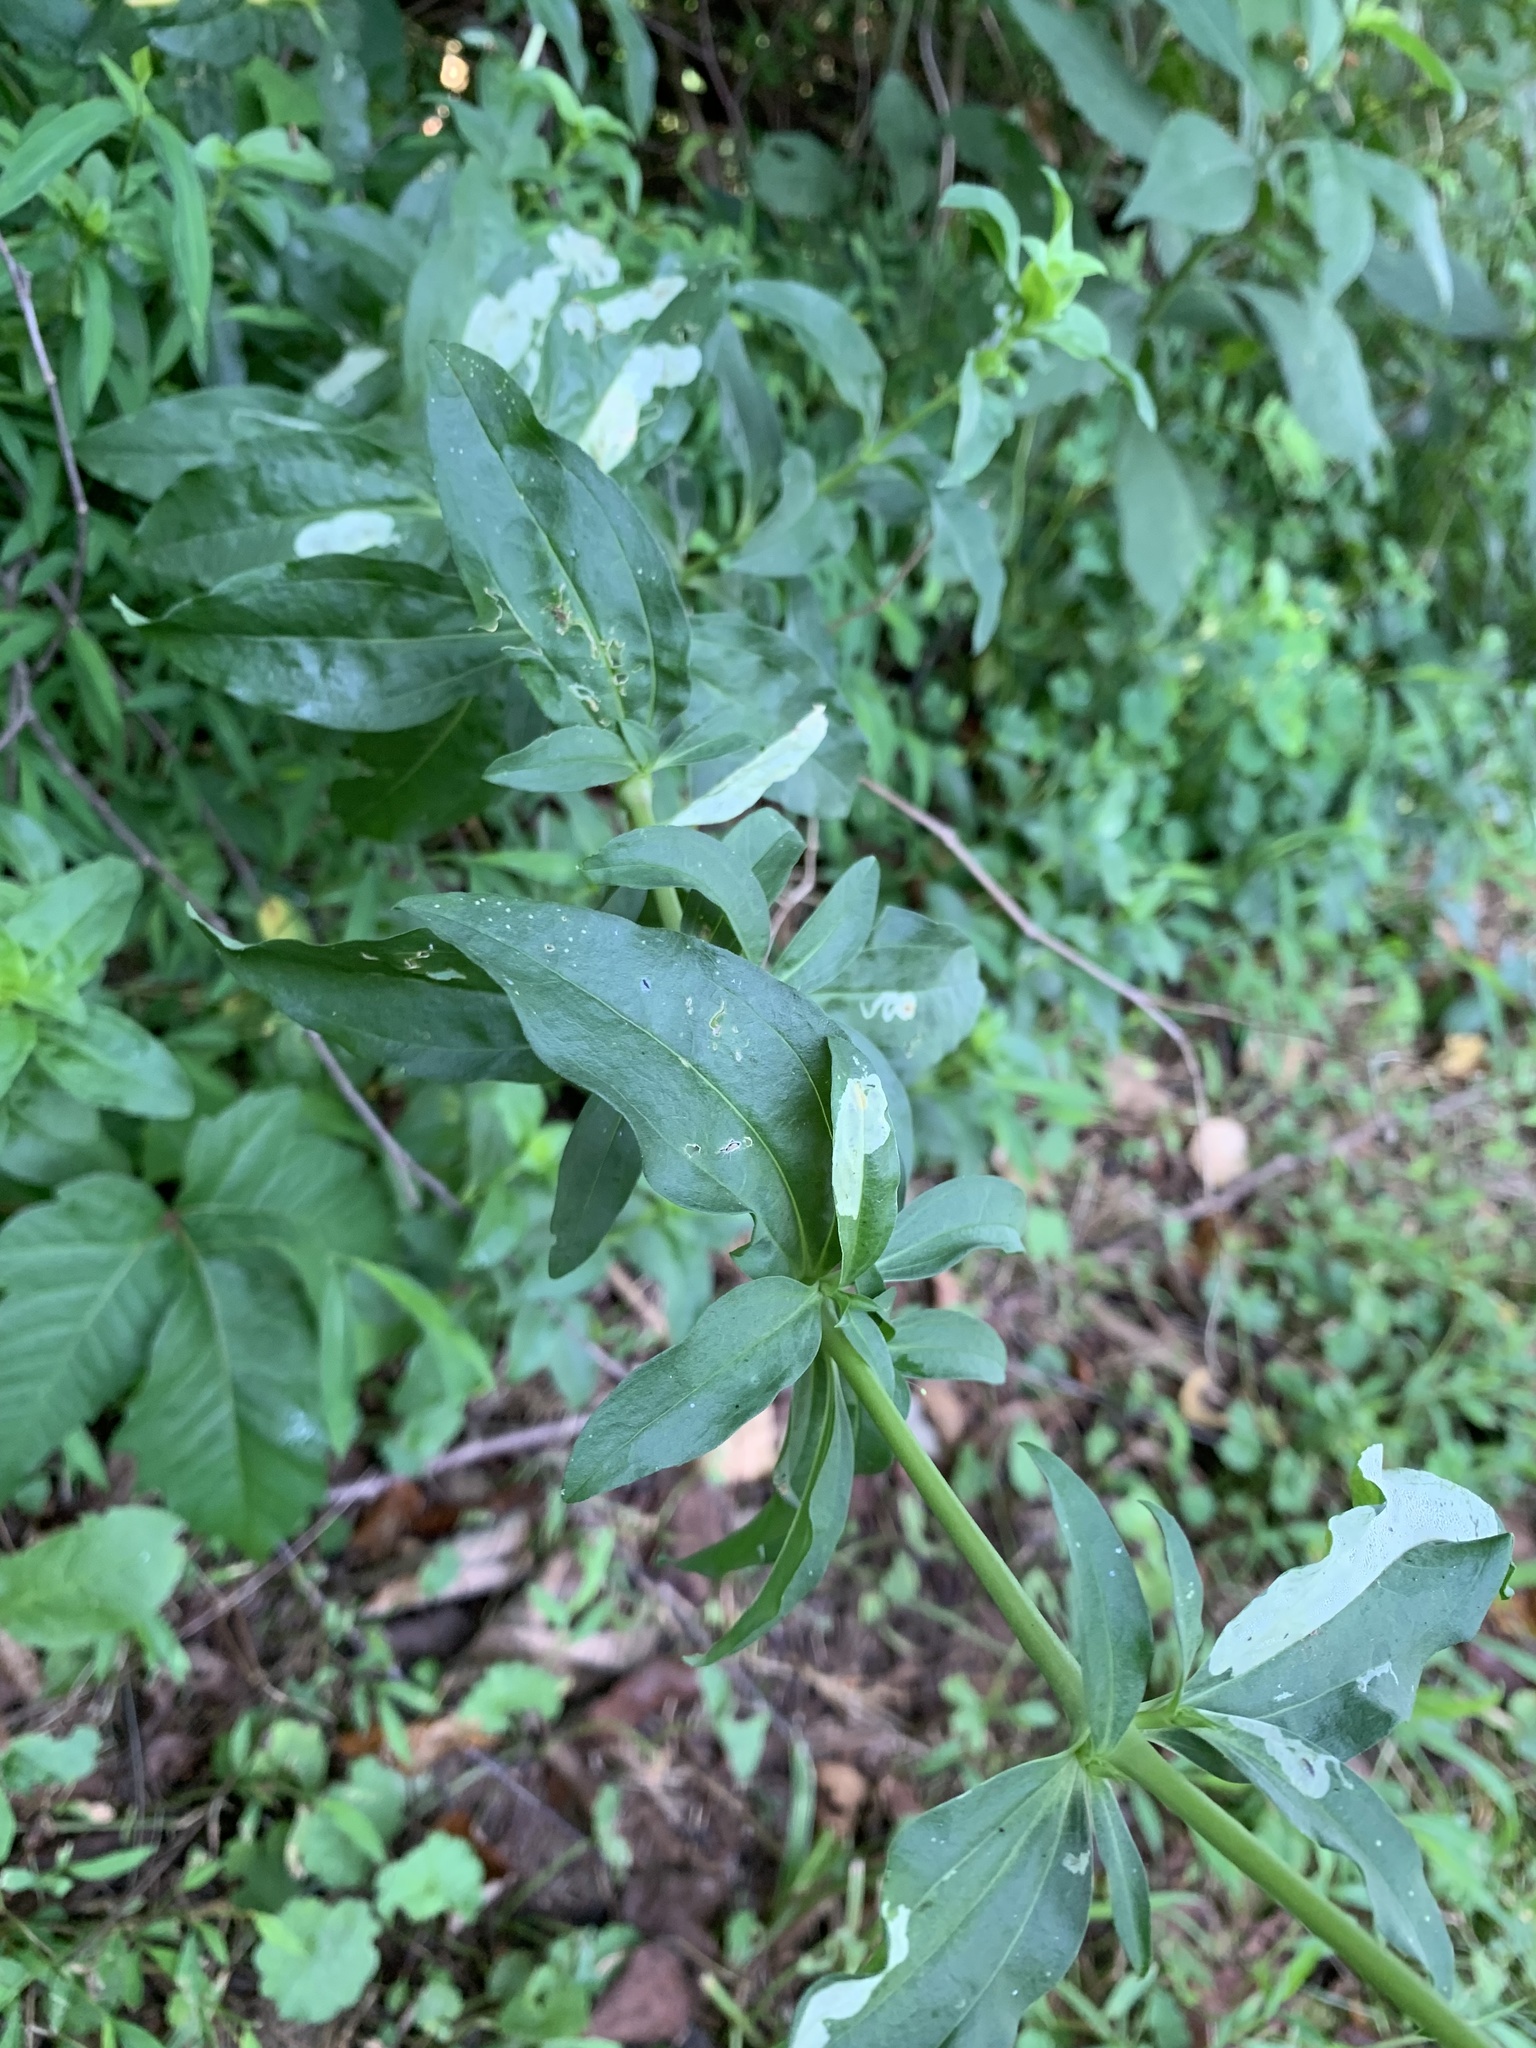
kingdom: Plantae
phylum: Tracheophyta
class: Magnoliopsida
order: Caryophyllales
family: Caryophyllaceae
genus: Saponaria
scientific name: Saponaria officinalis
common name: Soapwort
